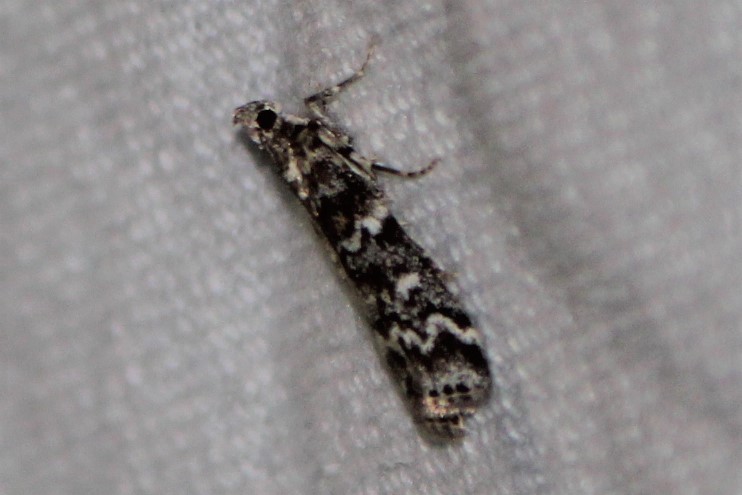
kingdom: Animalia
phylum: Arthropoda
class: Insecta
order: Lepidoptera
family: Pyralidae
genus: Dioryctria
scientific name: Dioryctria reniculelloides
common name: Spruce coneworm moth
